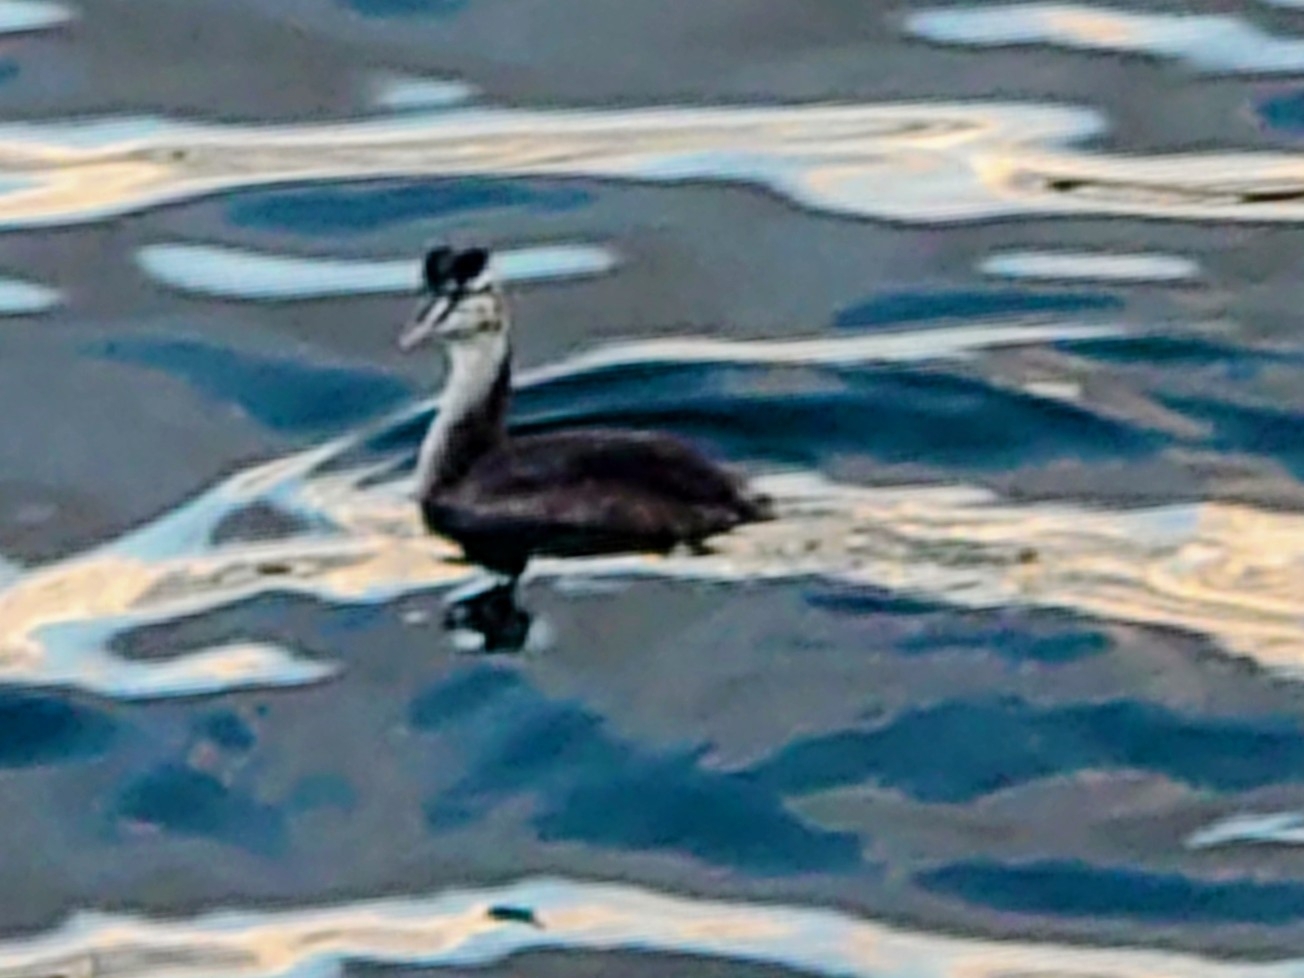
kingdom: Animalia
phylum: Chordata
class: Aves
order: Podicipediformes
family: Podicipedidae
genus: Podiceps
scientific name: Podiceps cristatus
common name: Great crested grebe
